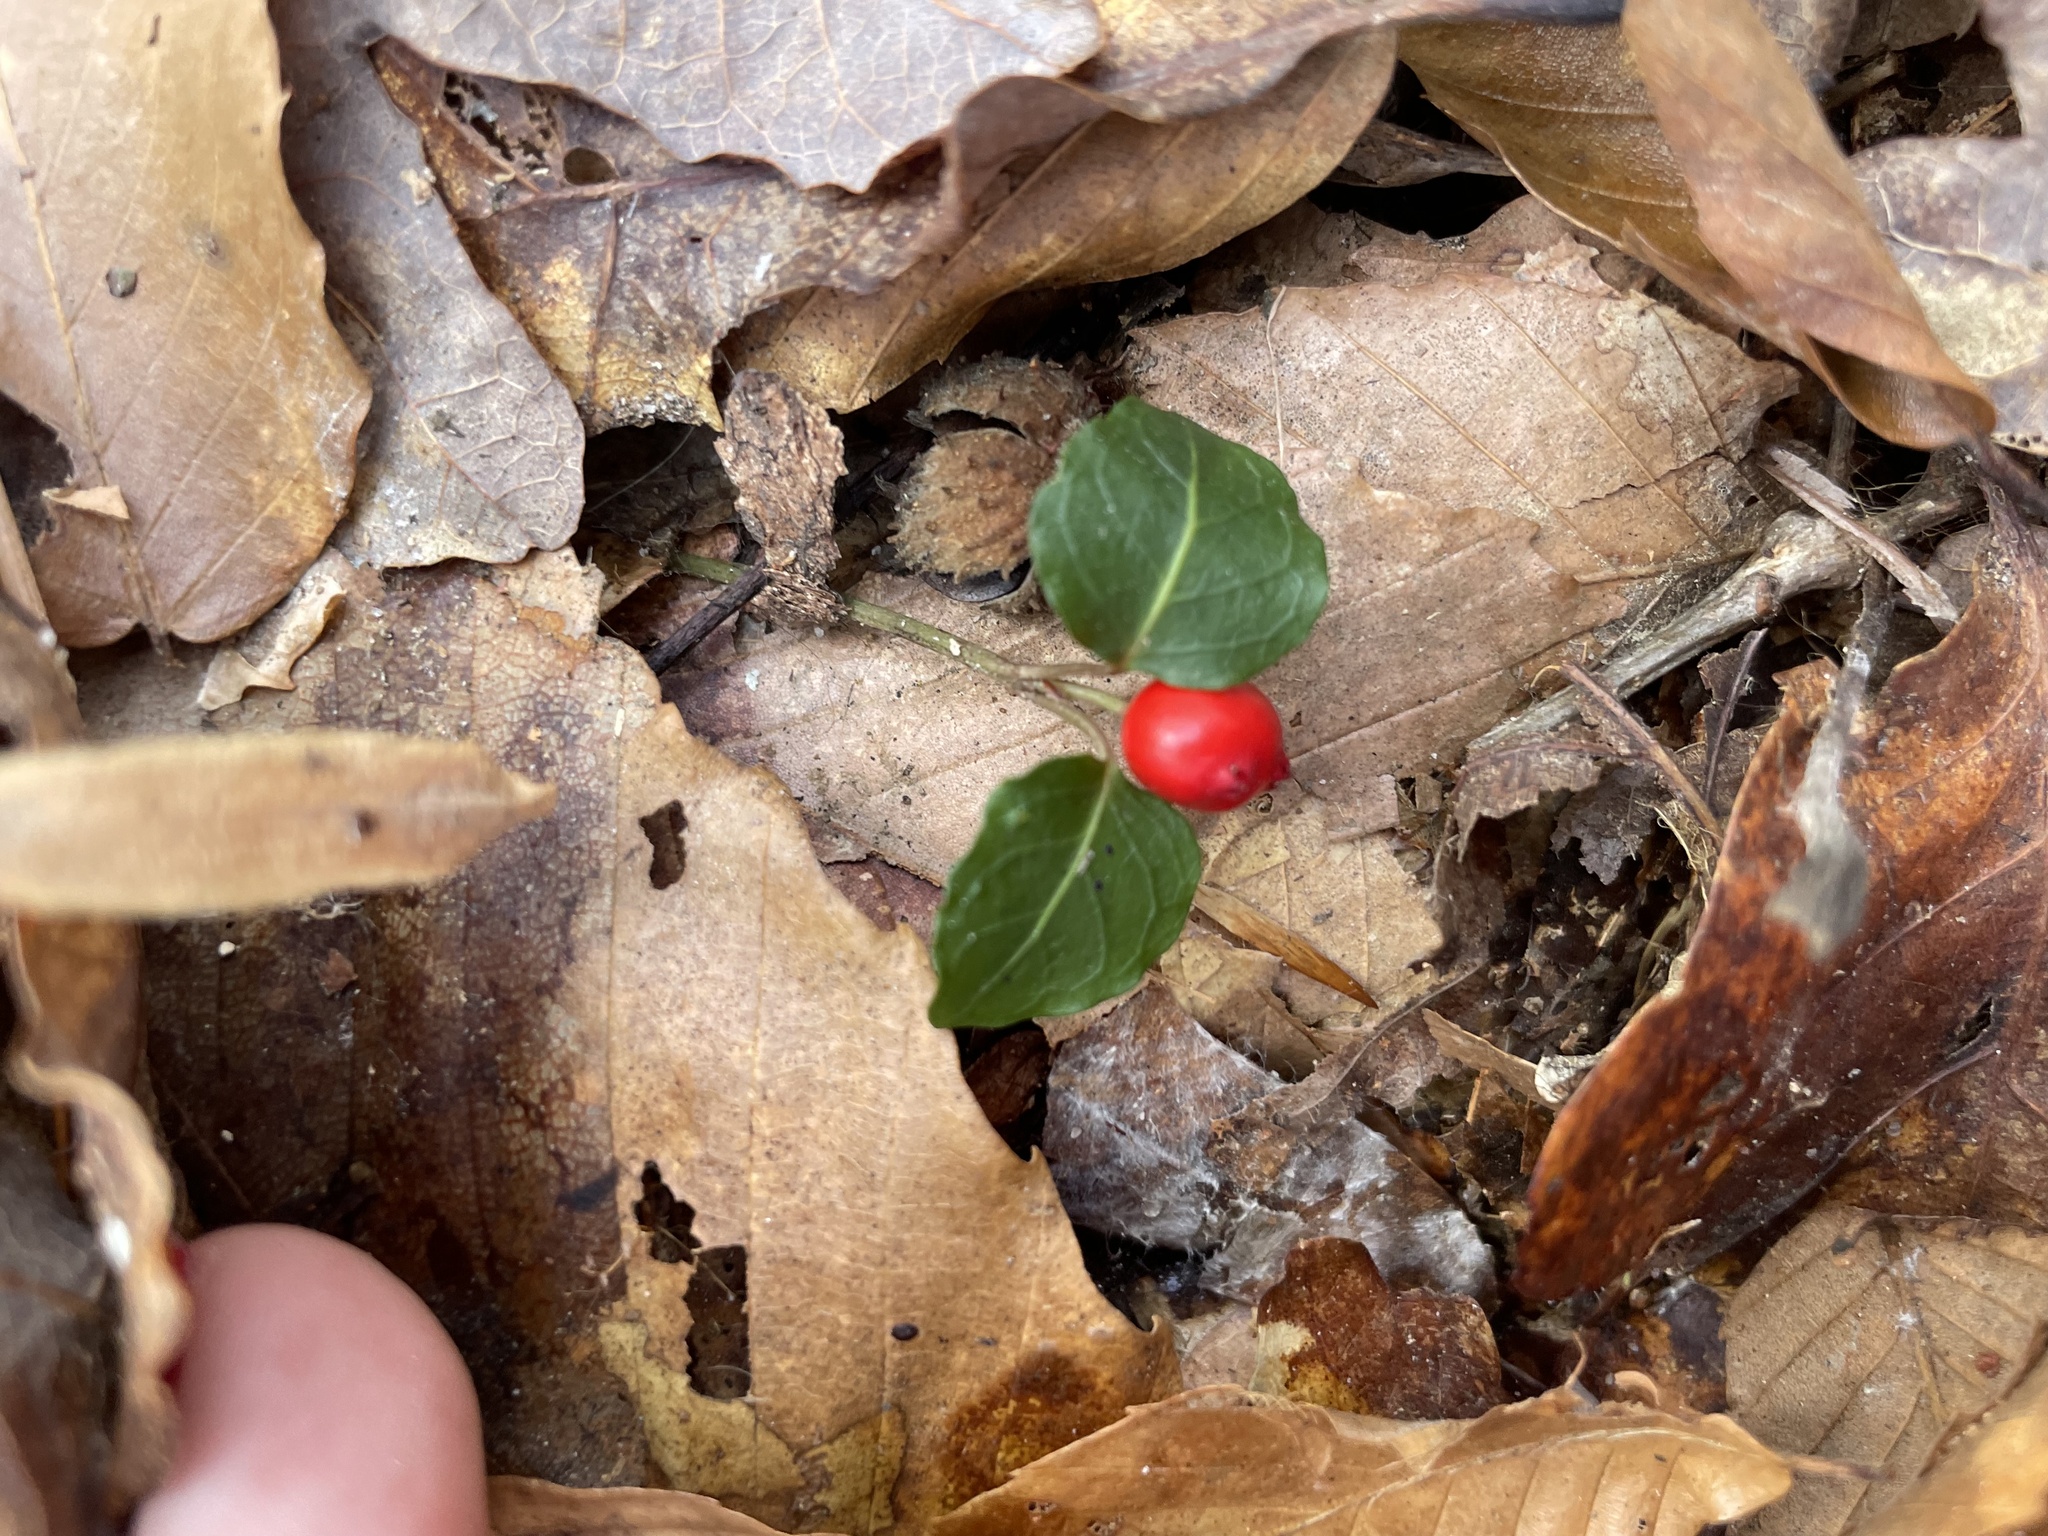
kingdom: Plantae
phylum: Tracheophyta
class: Magnoliopsida
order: Gentianales
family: Rubiaceae
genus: Mitchella
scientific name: Mitchella repens
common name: Partridge-berry
